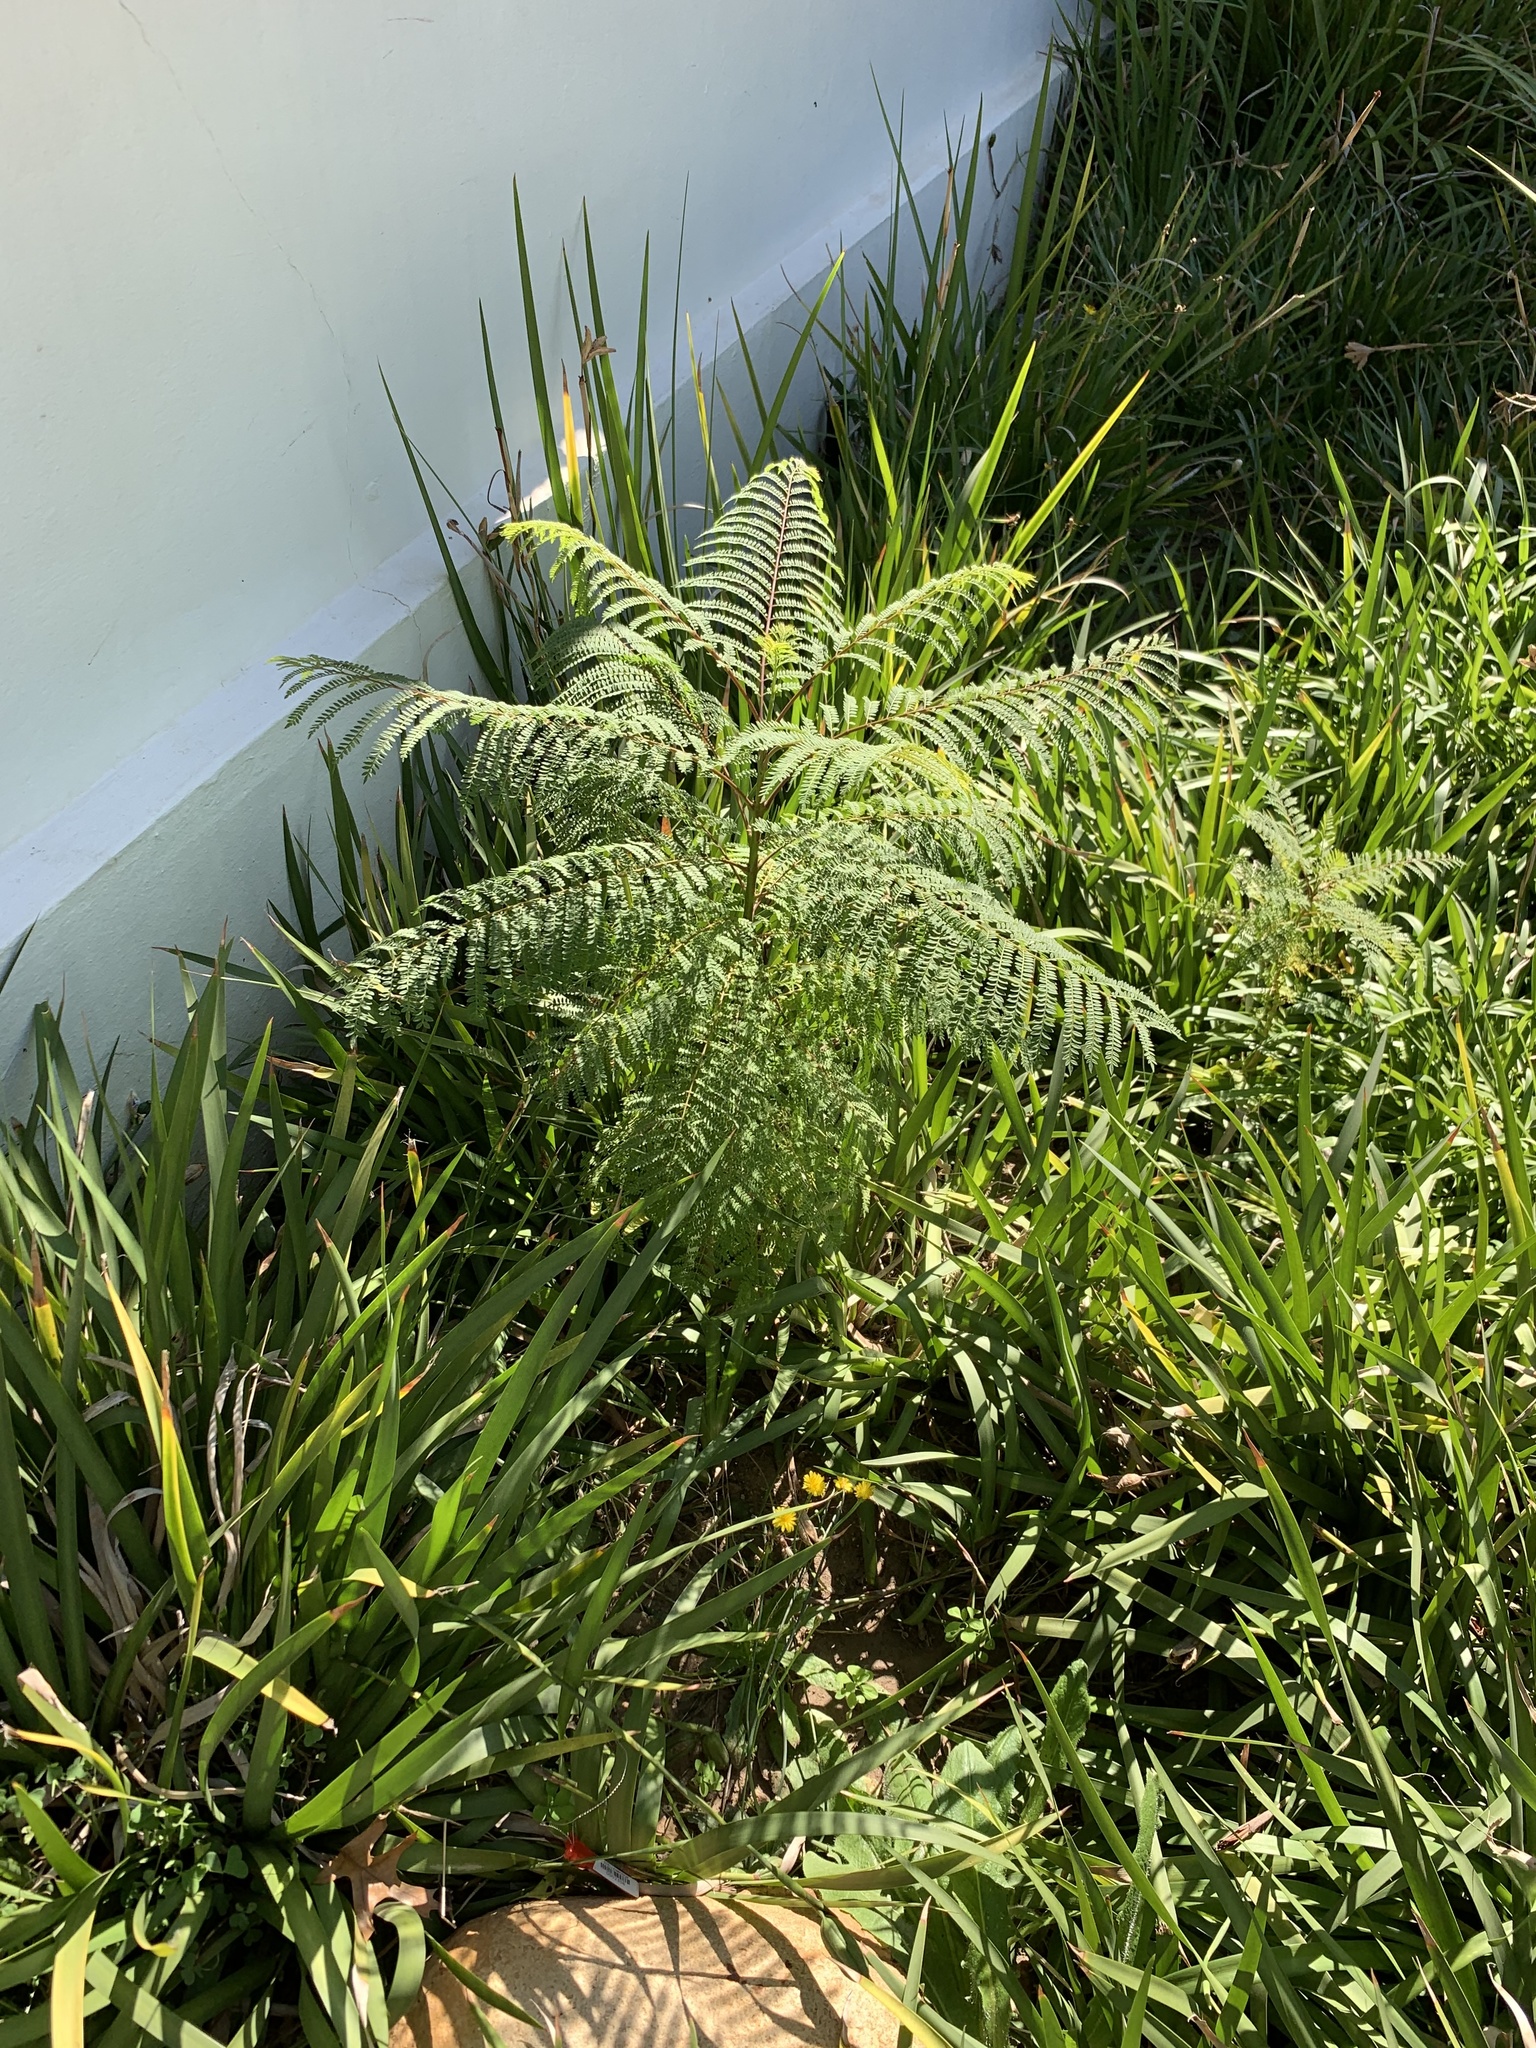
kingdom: Plantae
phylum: Tracheophyta
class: Magnoliopsida
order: Lamiales
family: Bignoniaceae
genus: Jacaranda
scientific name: Jacaranda mimosifolia
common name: Black poui
